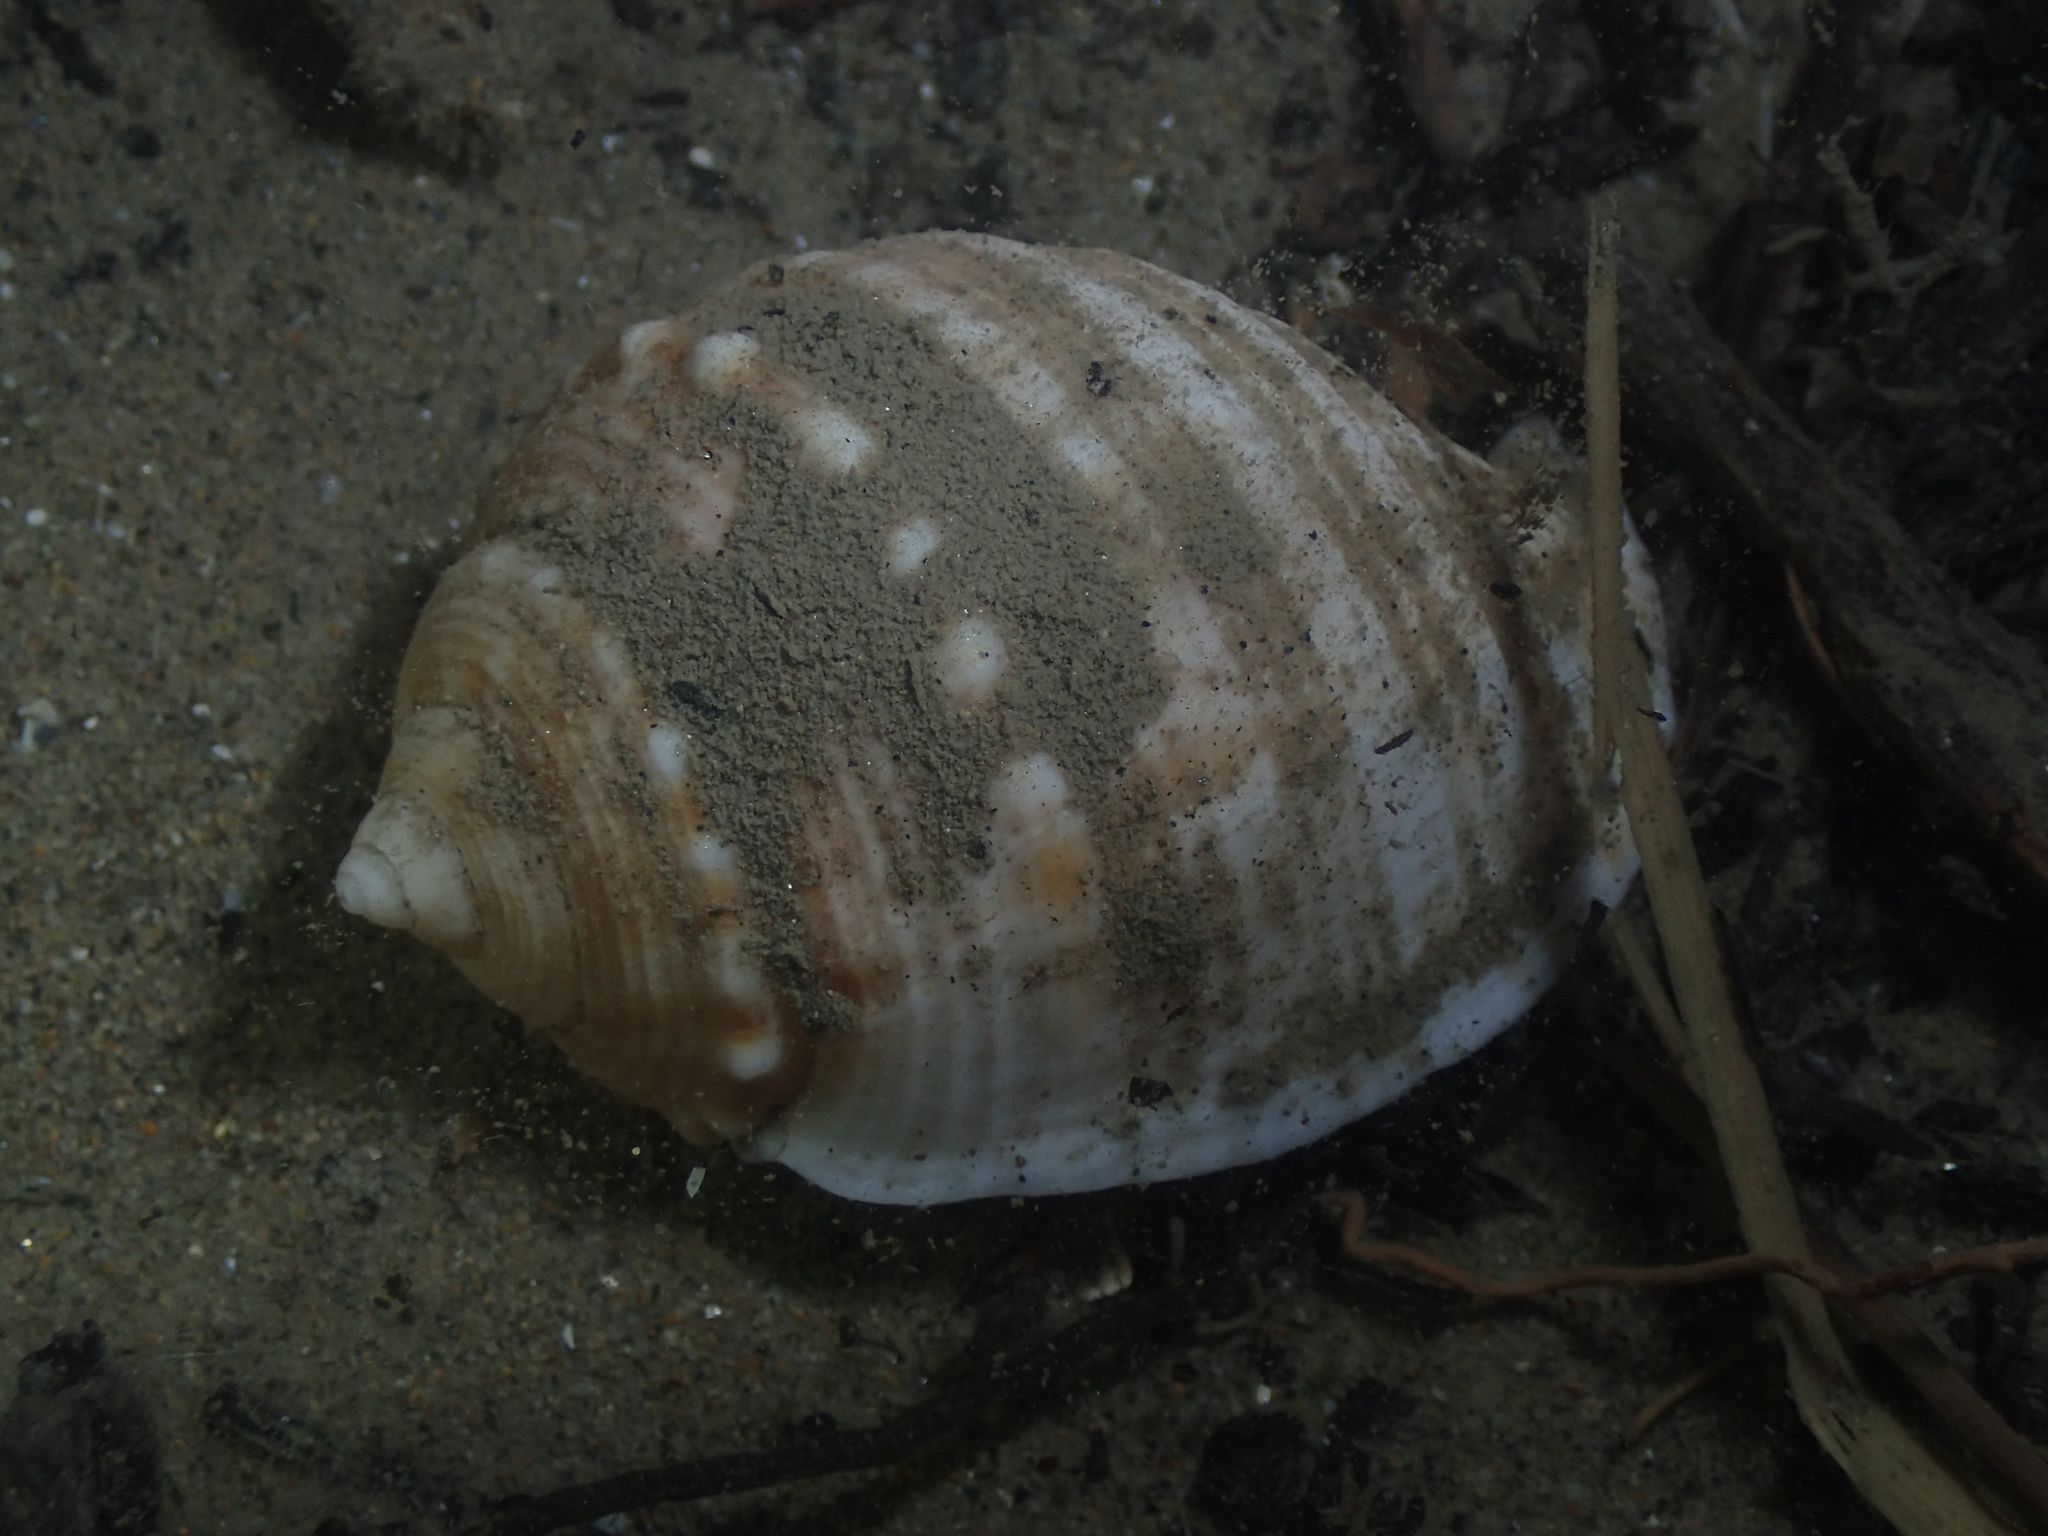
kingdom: Animalia
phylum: Mollusca
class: Gastropoda
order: Littorinimorpha
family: Cassidae
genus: Galeodea
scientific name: Galeodea echinophora
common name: Mediterranean spiny bonnet
